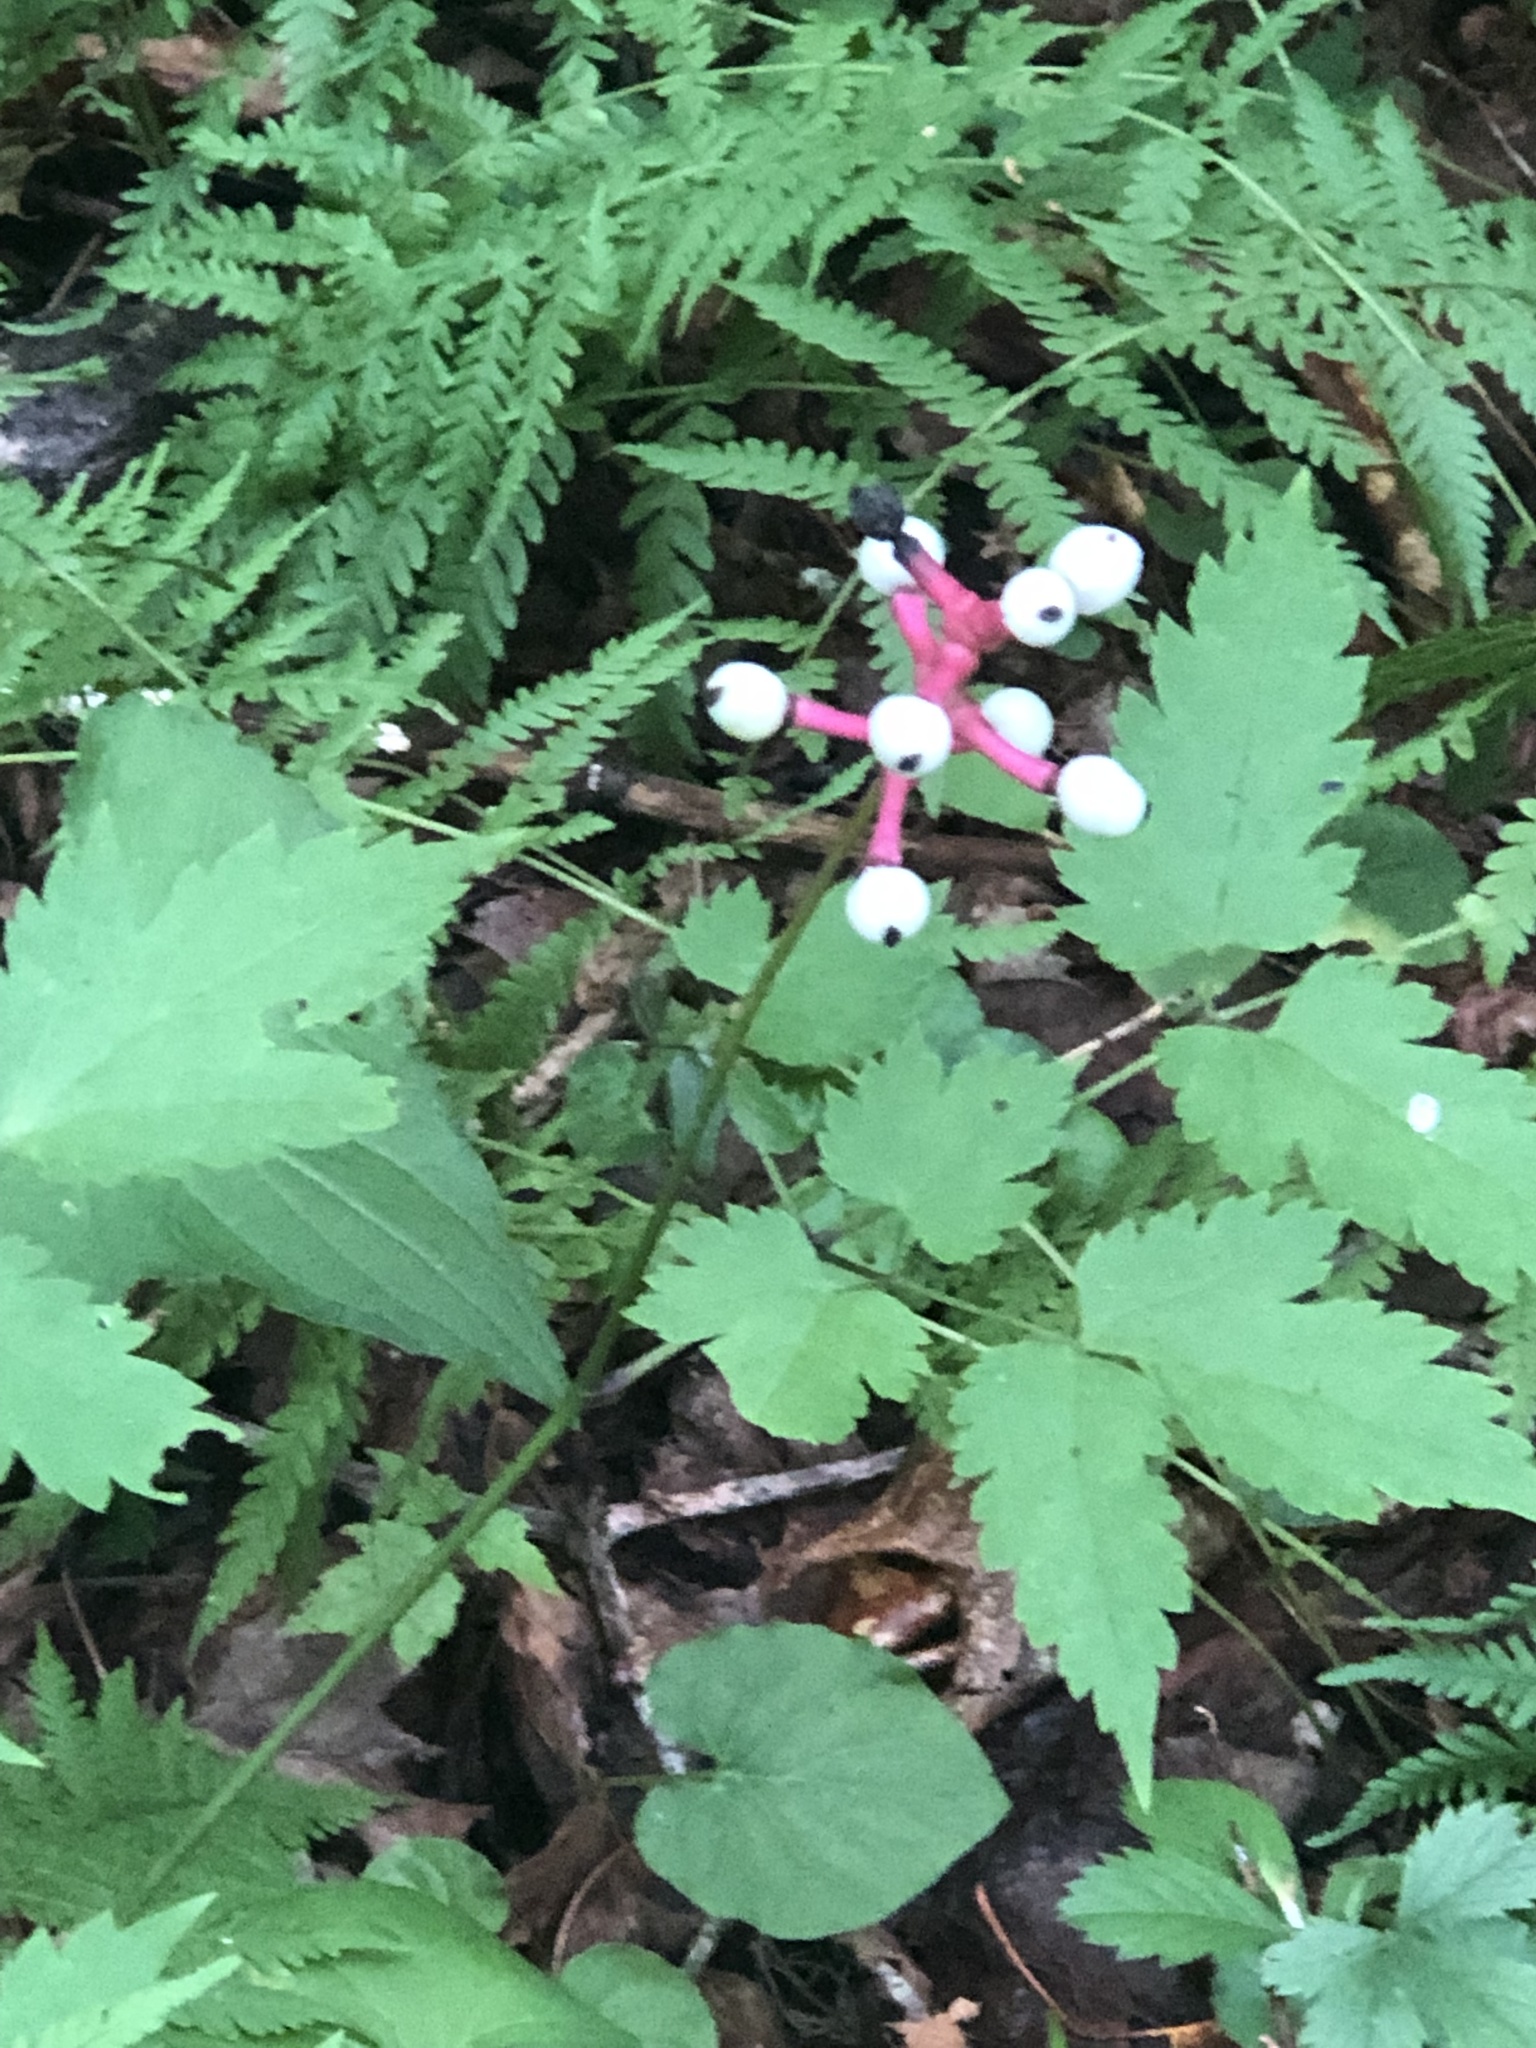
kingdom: Plantae
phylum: Tracheophyta
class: Magnoliopsida
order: Ranunculales
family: Ranunculaceae
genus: Actaea
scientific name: Actaea pachypoda
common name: Doll's-eyes
